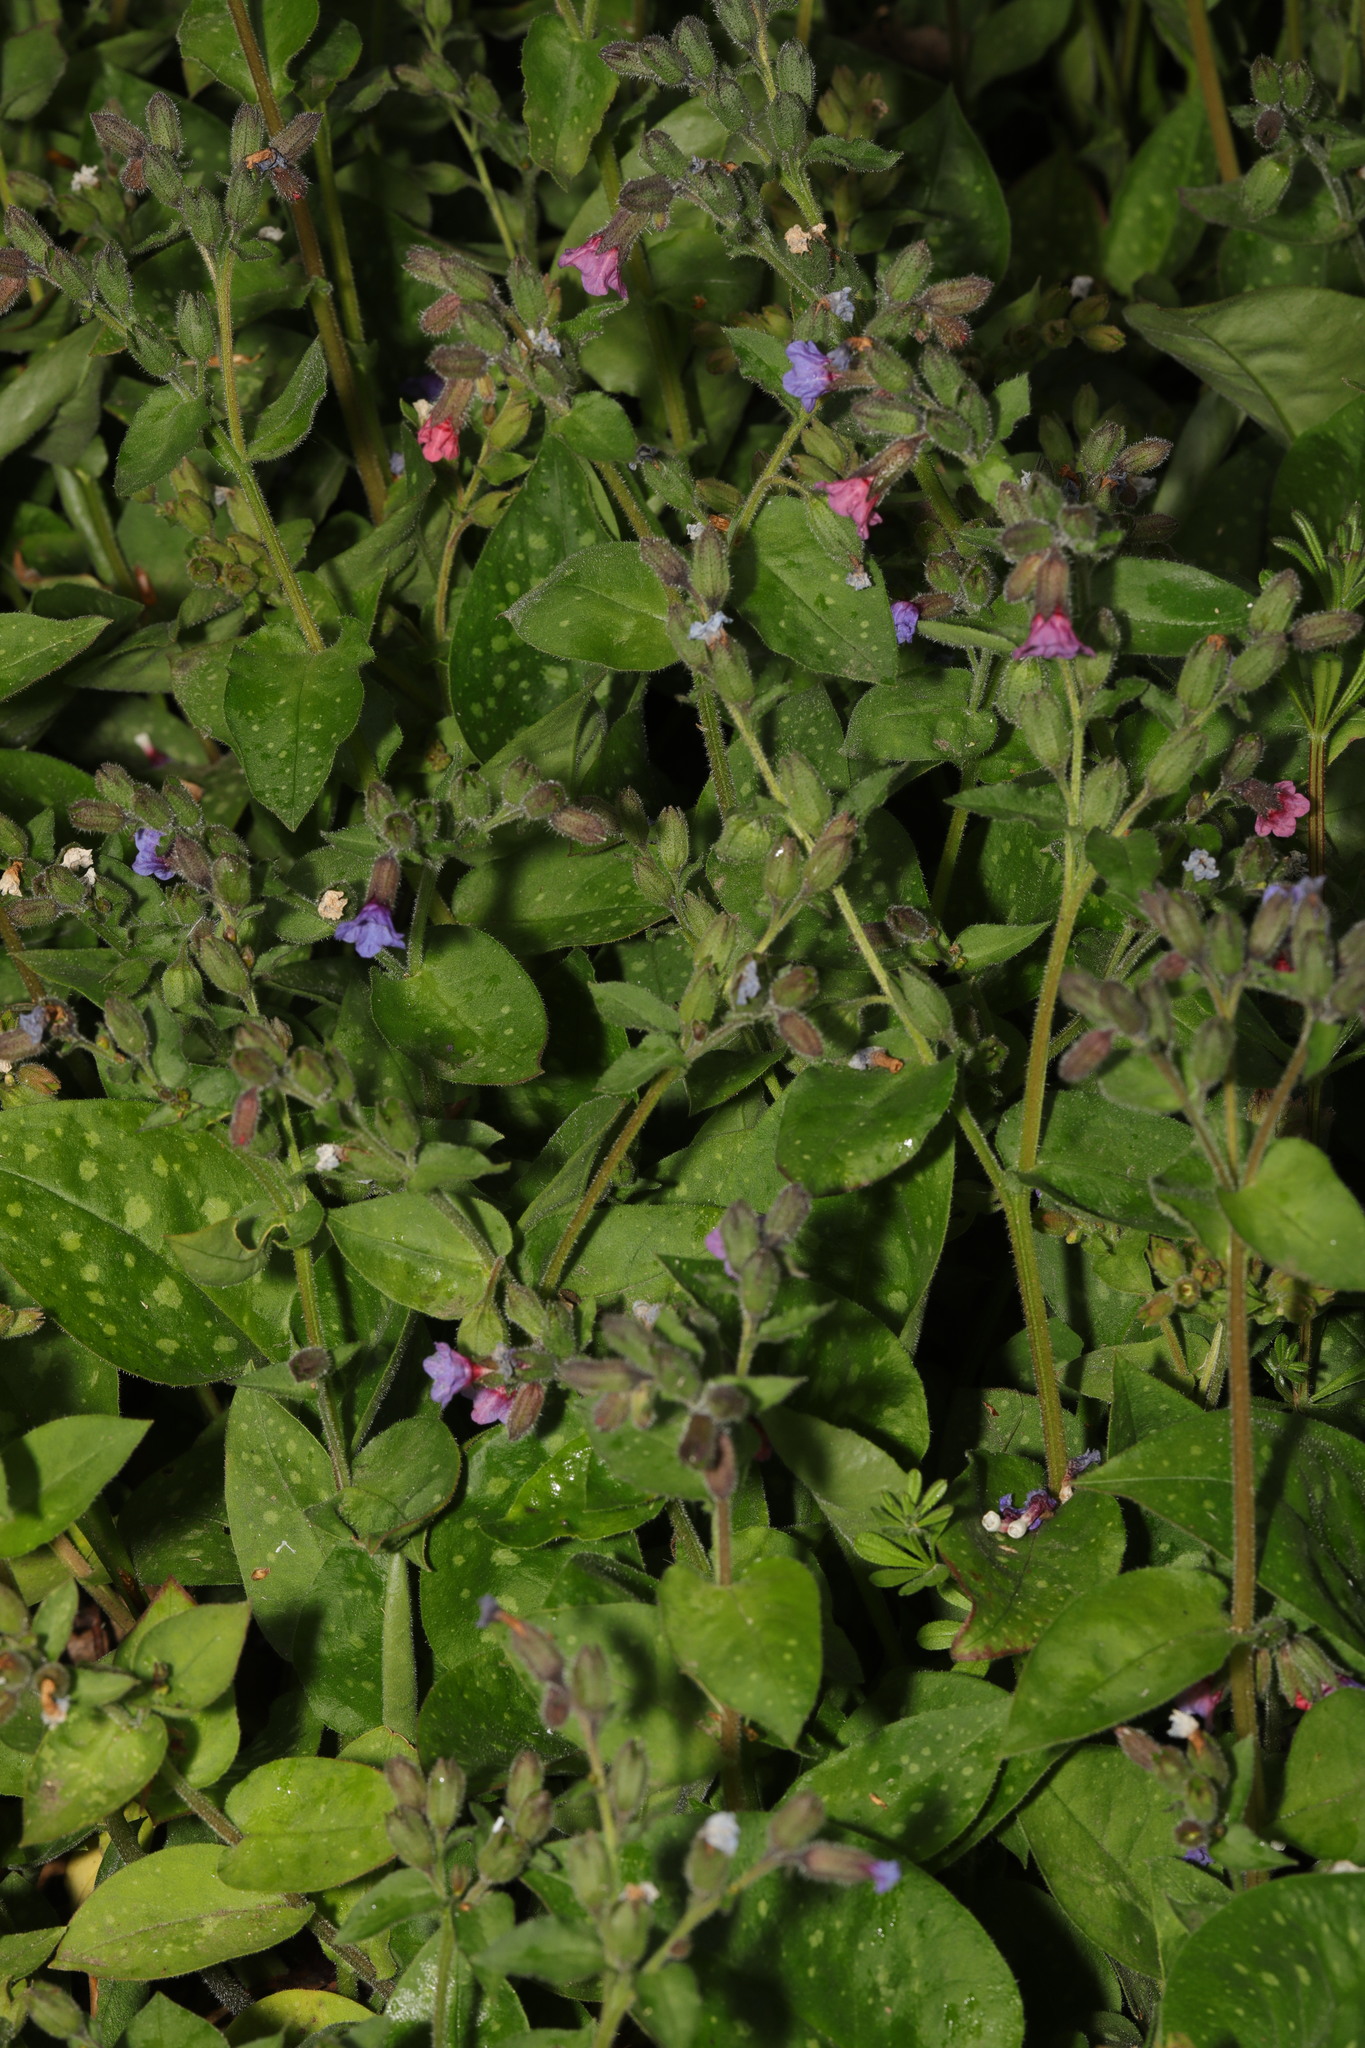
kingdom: Plantae
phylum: Tracheophyta
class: Magnoliopsida
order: Boraginales
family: Boraginaceae
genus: Pulmonaria
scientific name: Pulmonaria officinalis
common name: Lungwort
